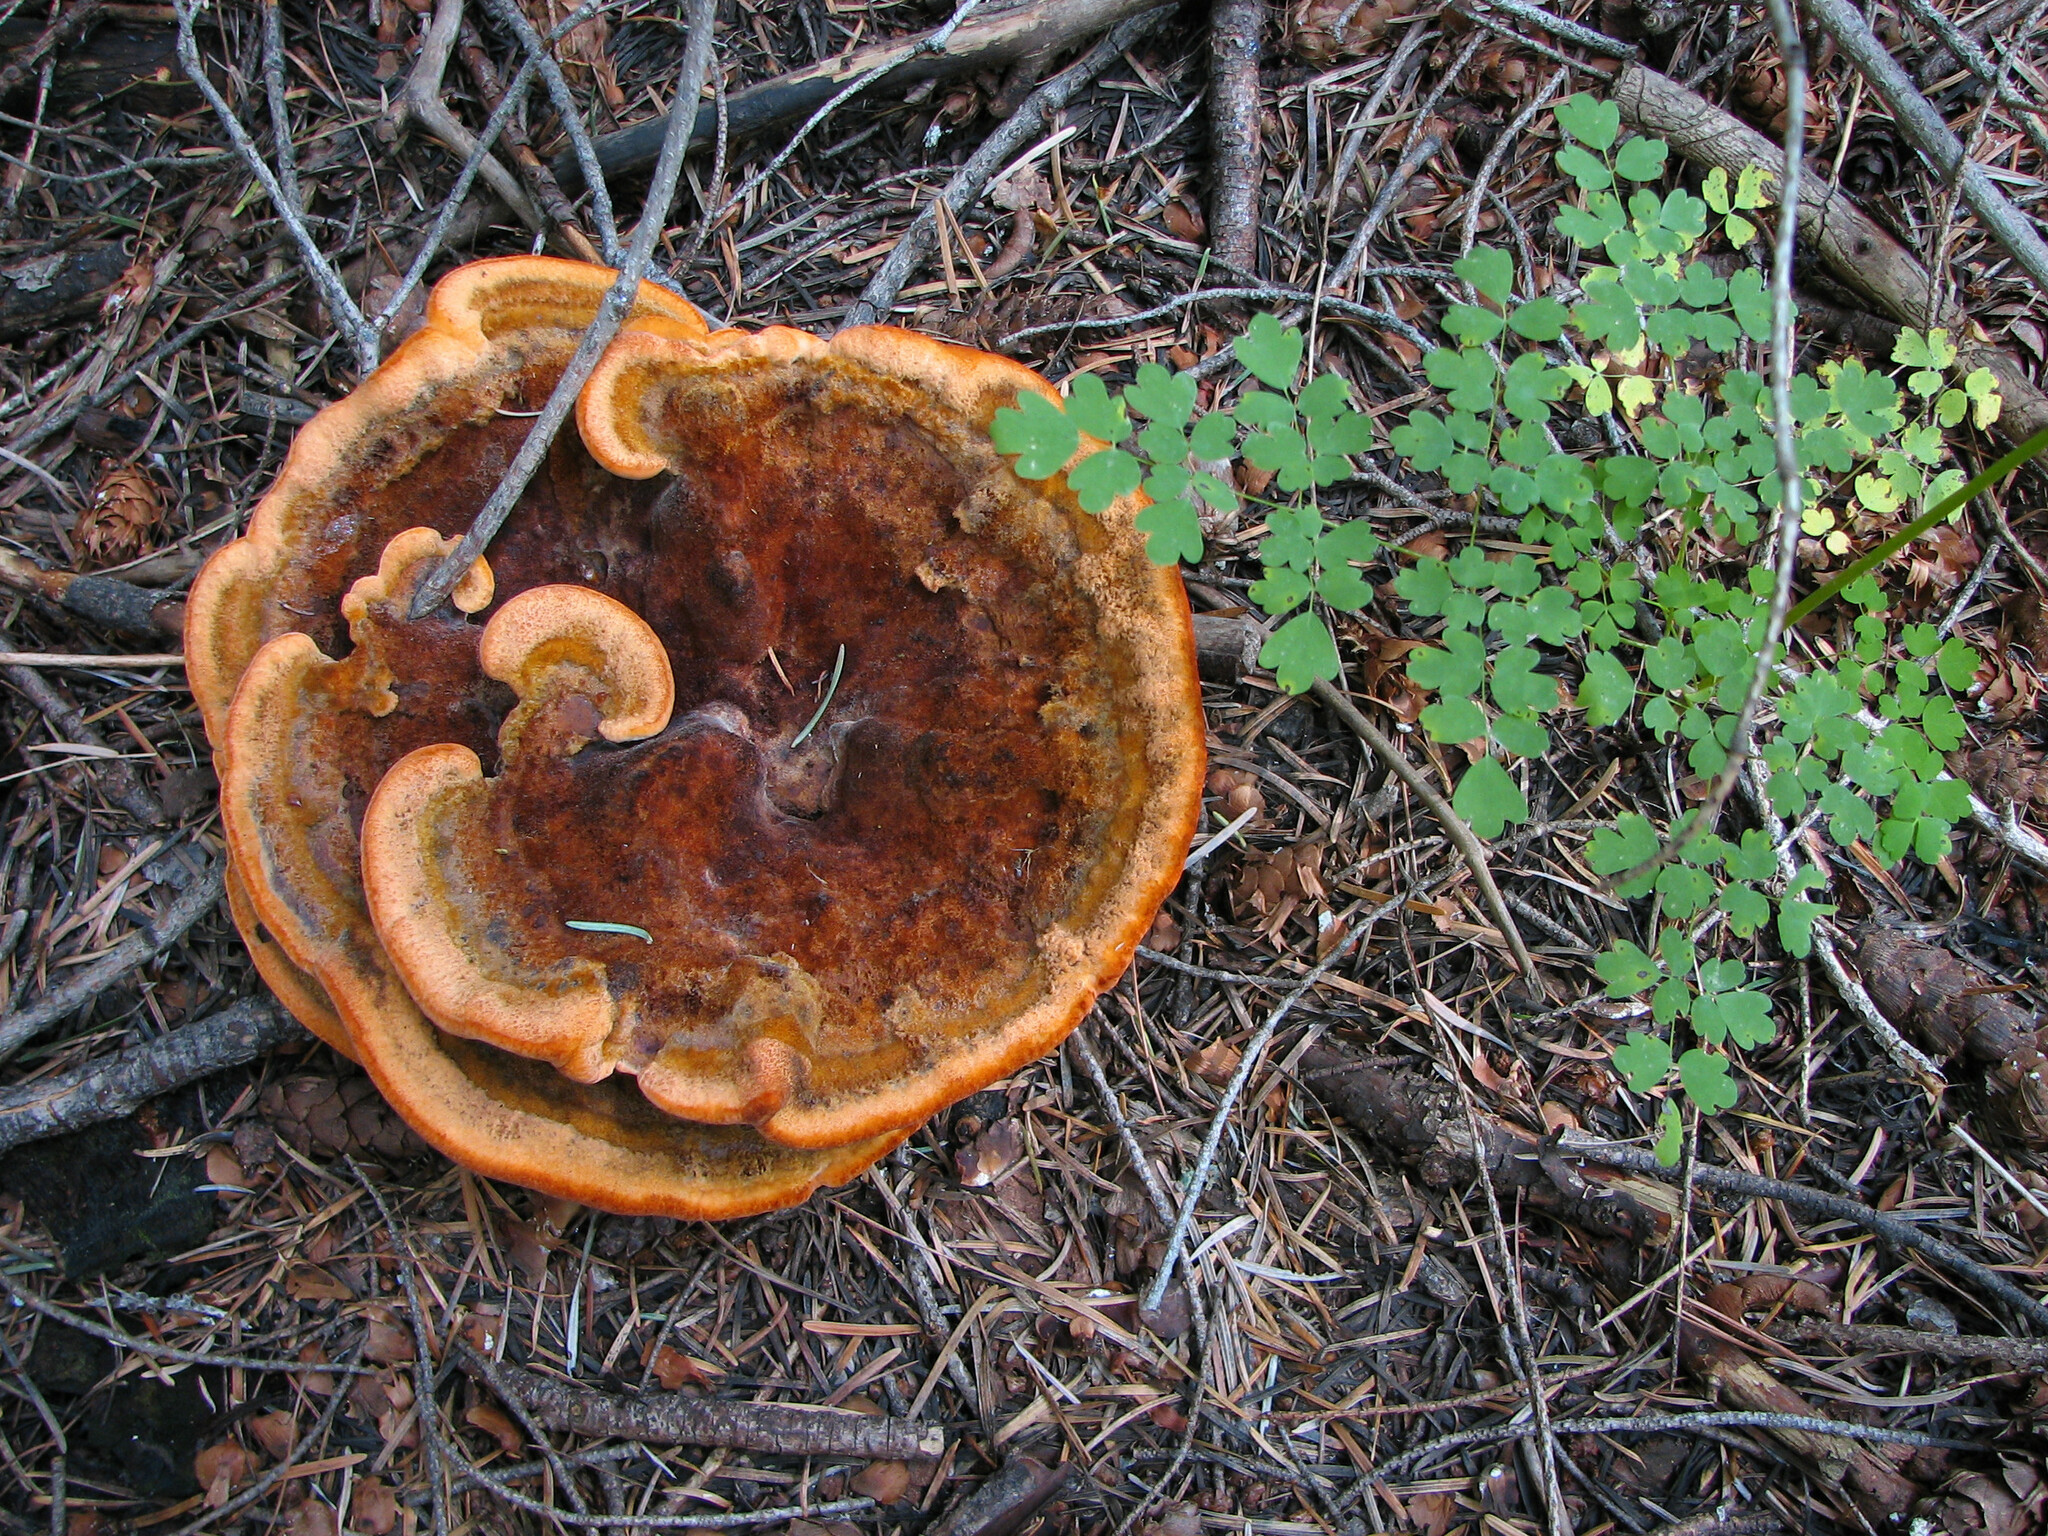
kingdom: Fungi
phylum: Basidiomycota
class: Agaricomycetes
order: Polyporales
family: Laetiporaceae
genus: Phaeolus
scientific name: Phaeolus schweinitzii
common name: Dyer's mazegill
